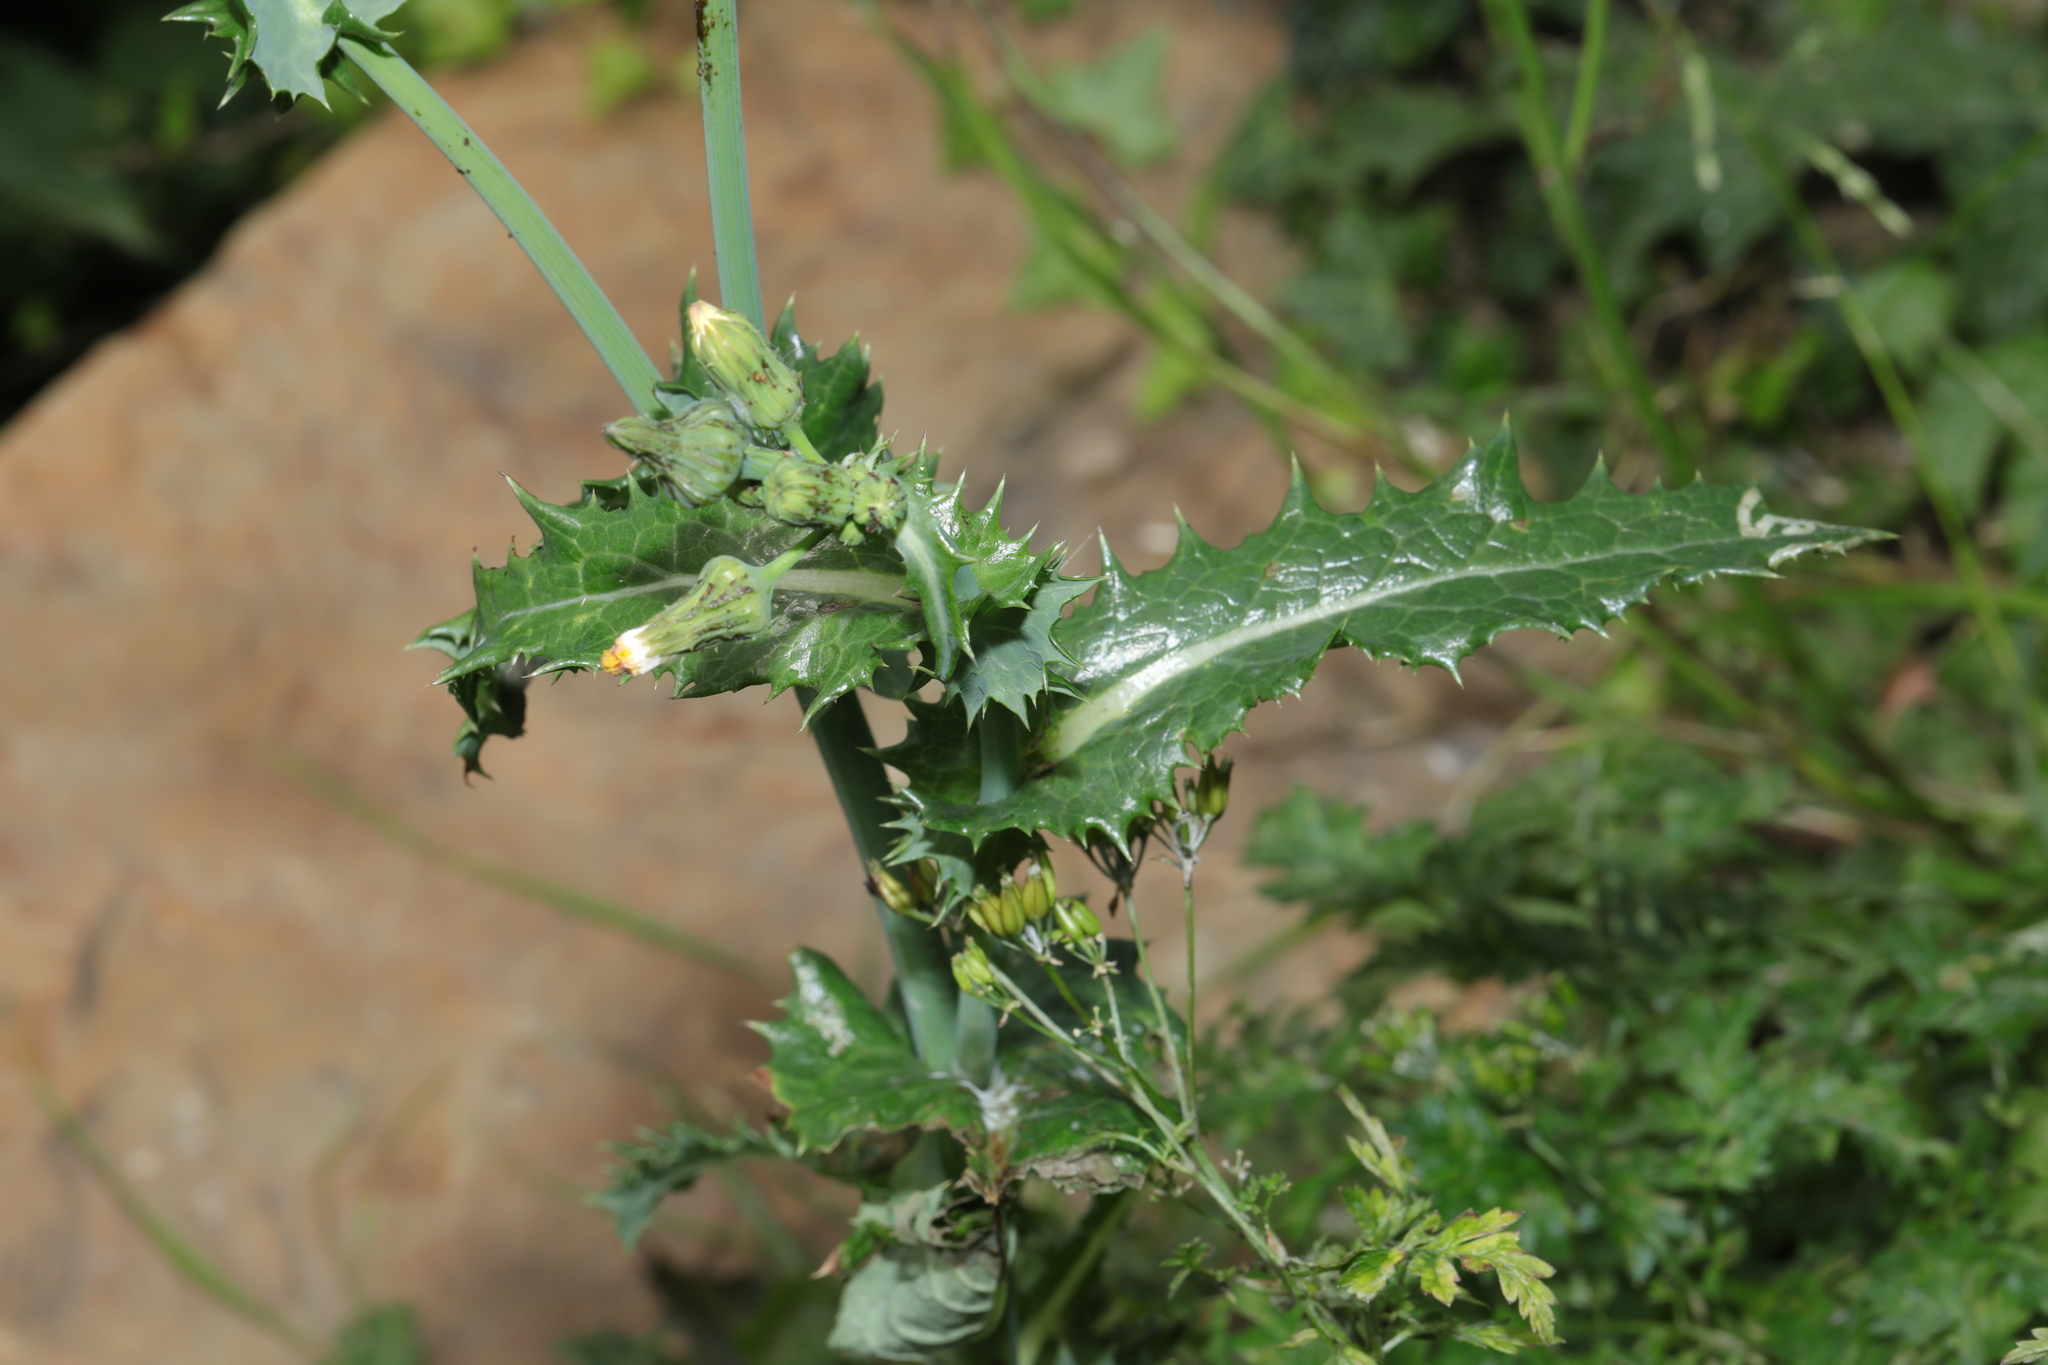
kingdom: Plantae
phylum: Tracheophyta
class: Magnoliopsida
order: Asterales
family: Asteraceae
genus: Sonchus
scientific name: Sonchus asper
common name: Prickly sow-thistle
